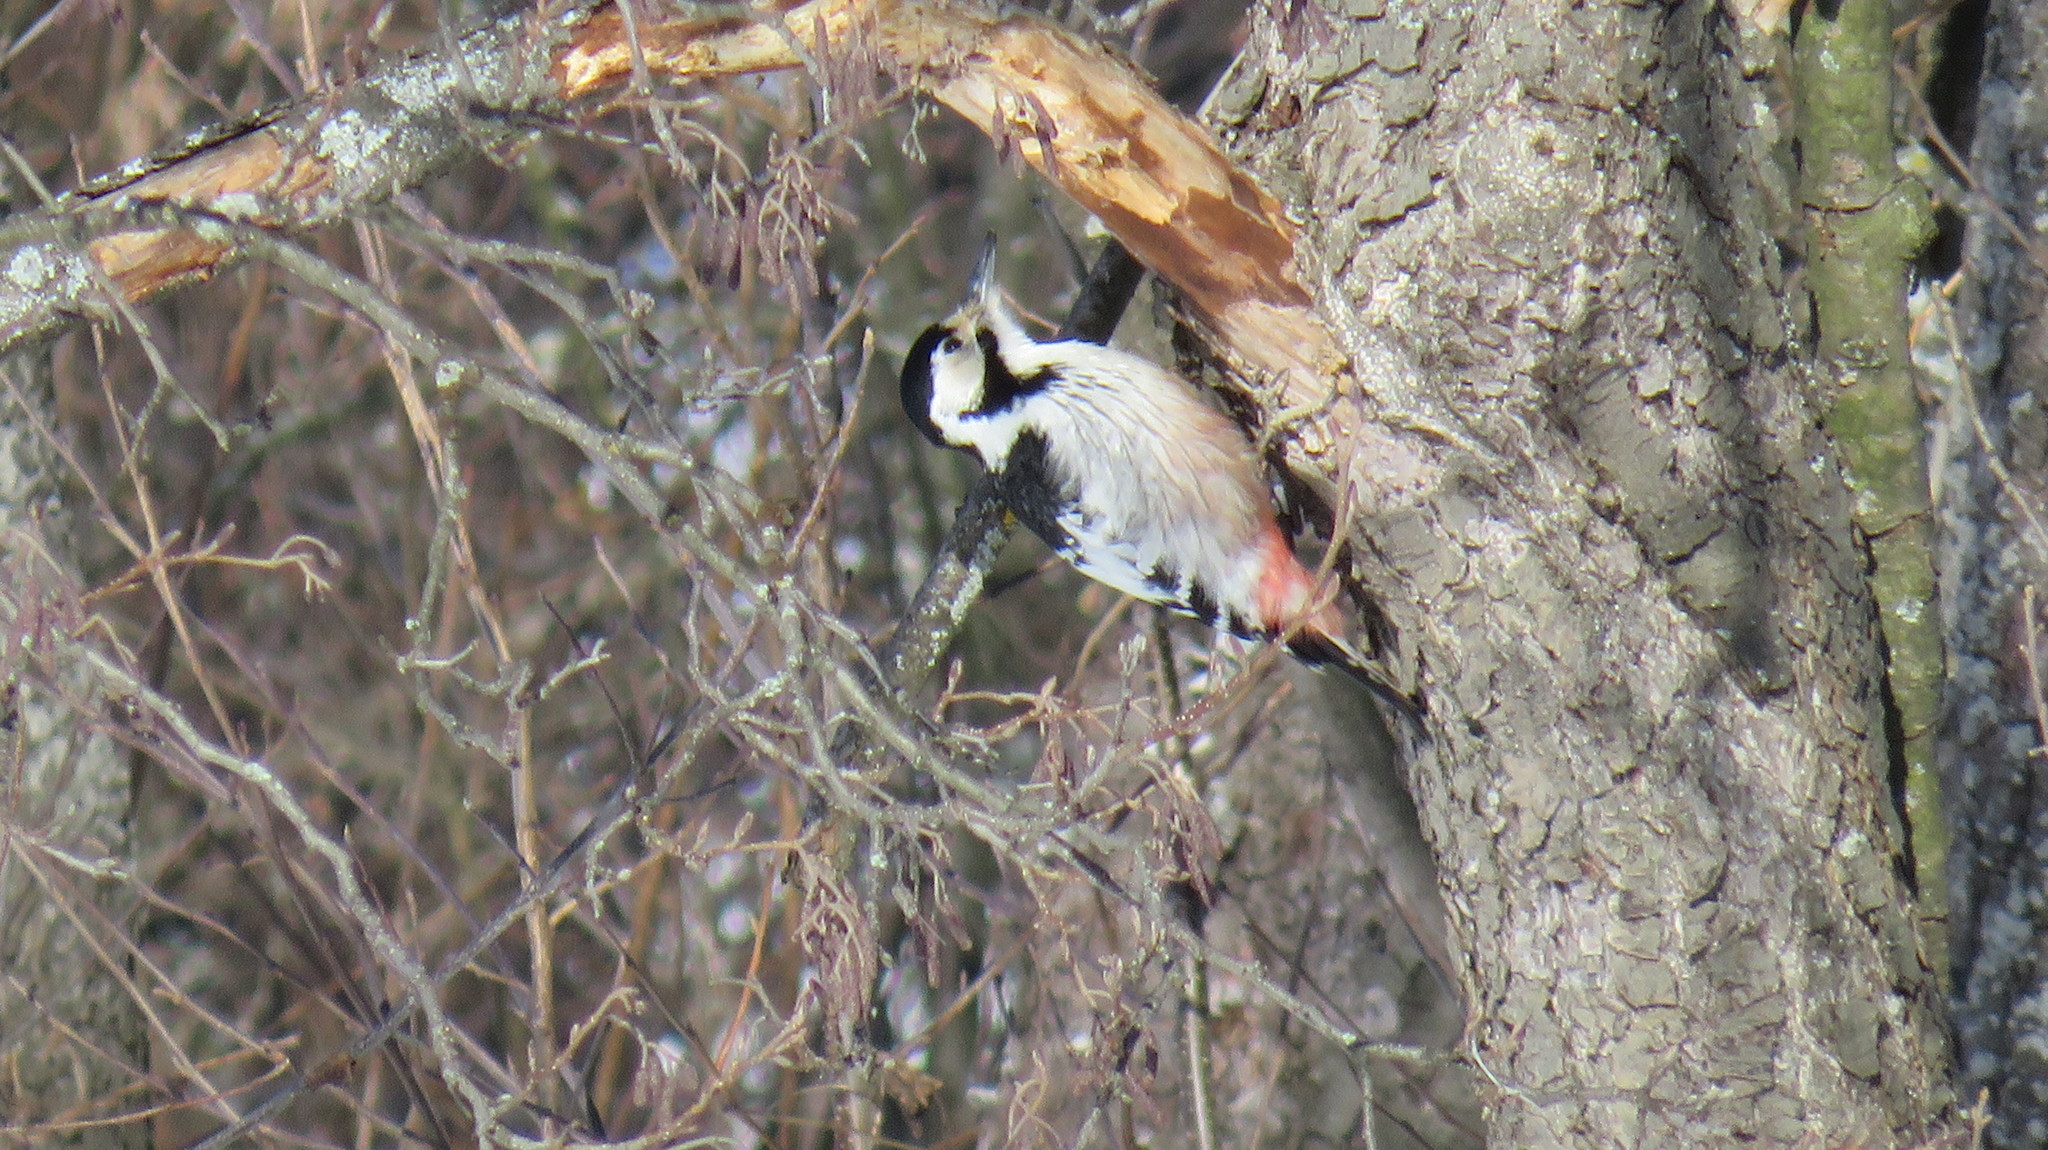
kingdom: Animalia
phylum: Chordata
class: Aves
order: Piciformes
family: Picidae
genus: Dendrocopos
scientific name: Dendrocopos leucotos
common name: White-backed woodpecker
